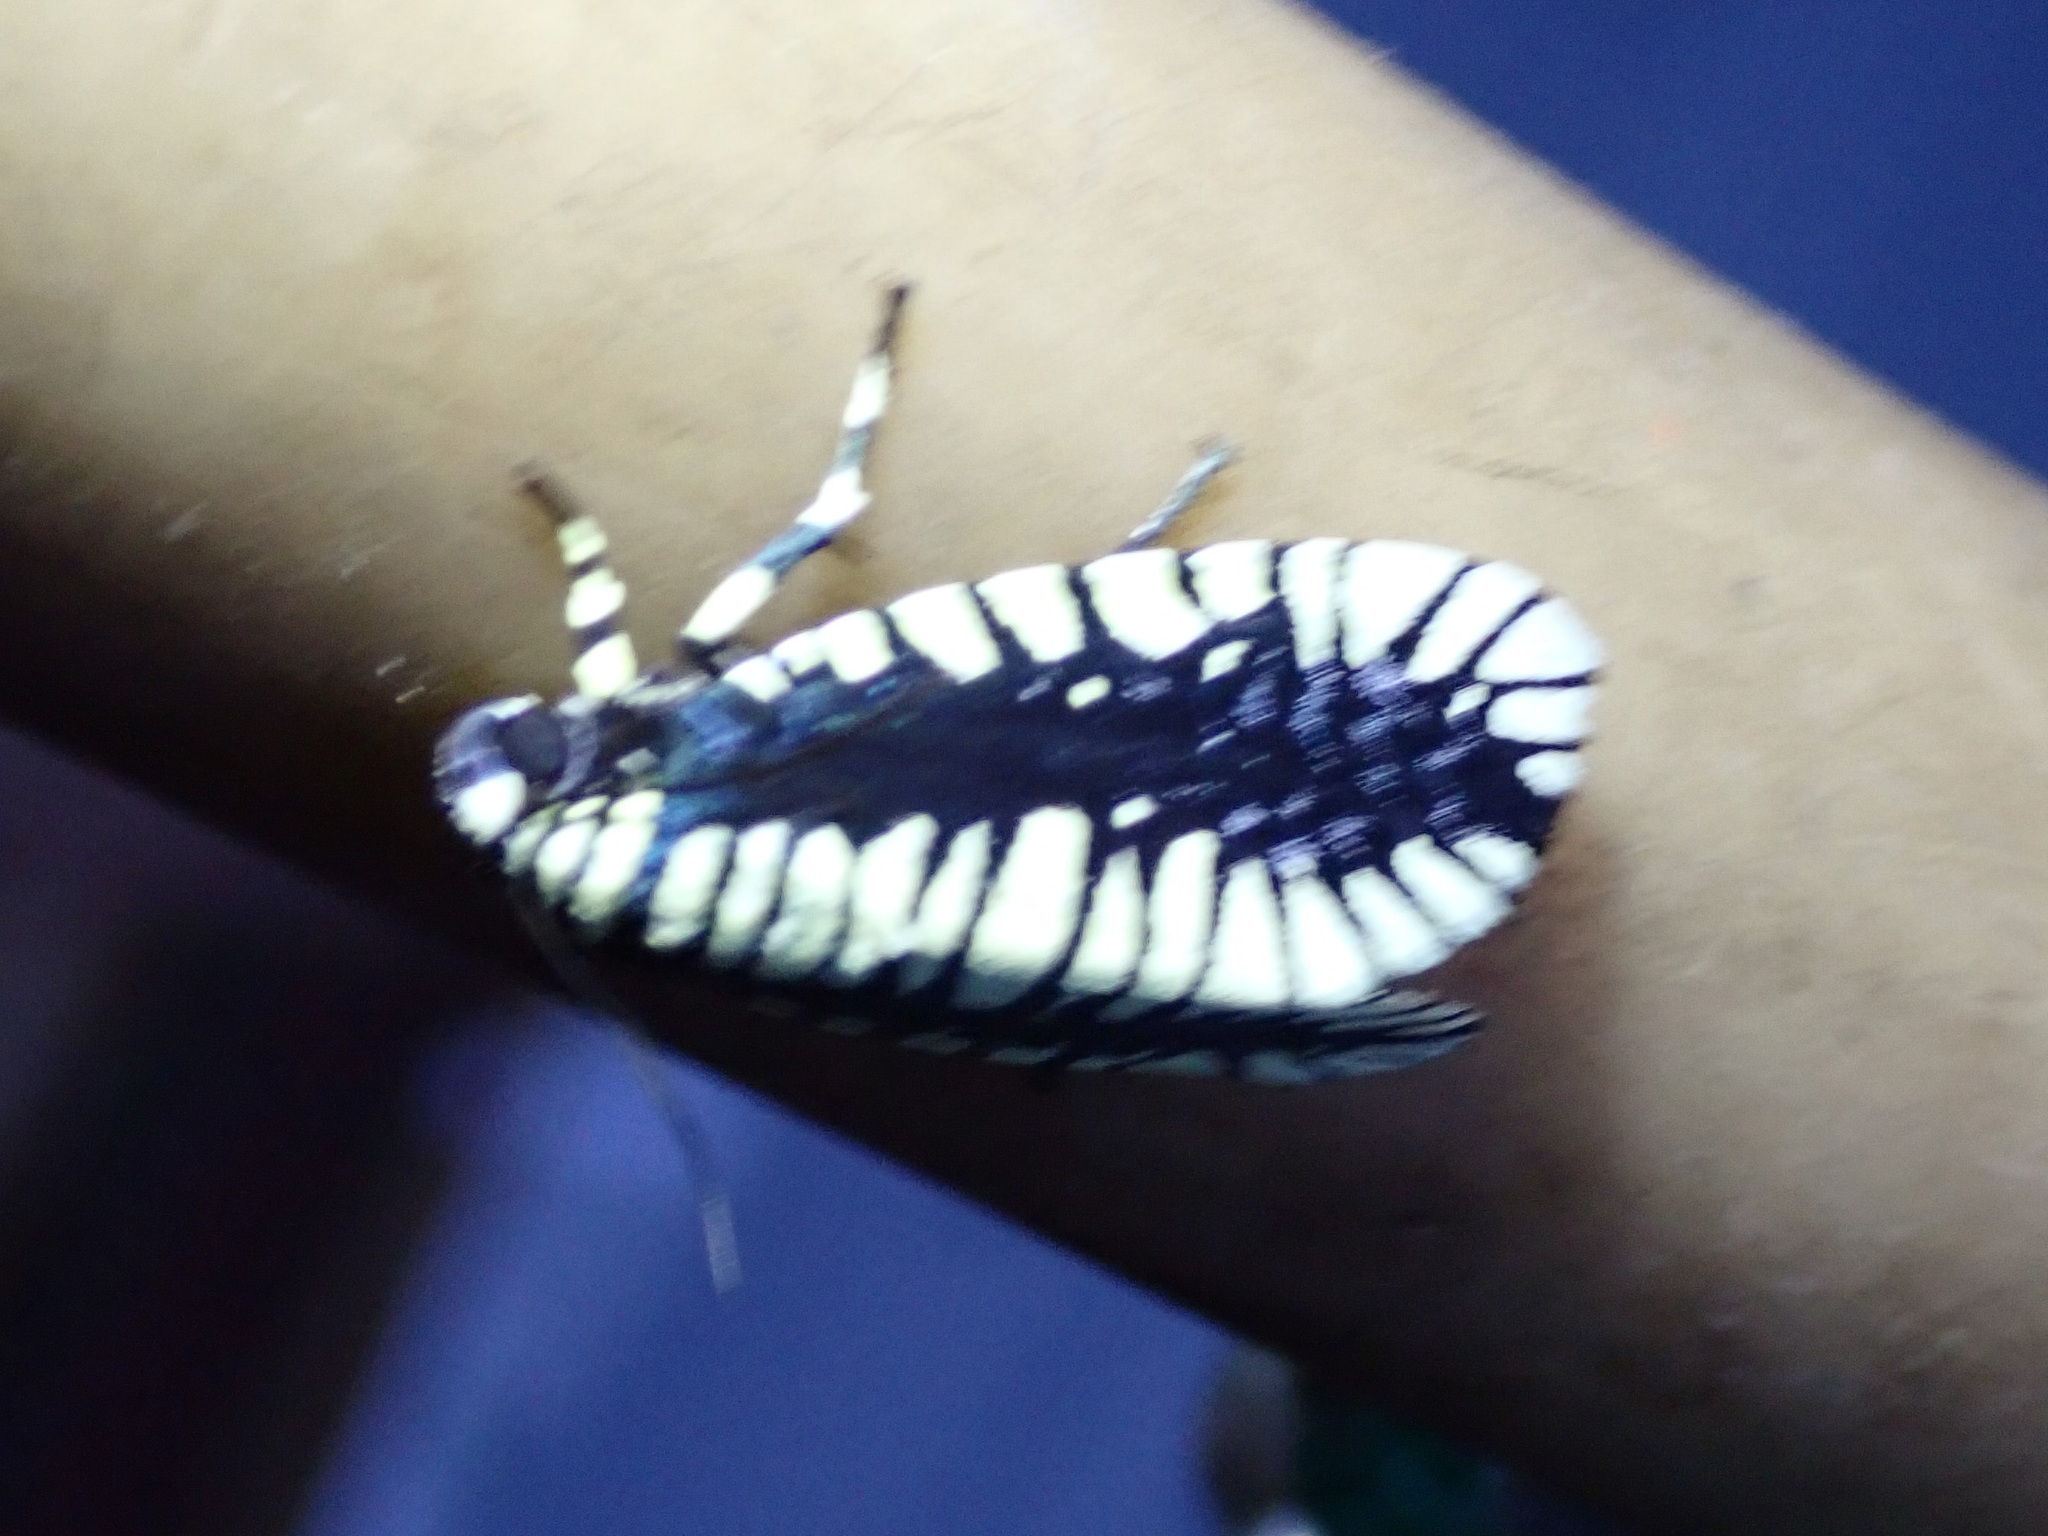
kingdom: Animalia
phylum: Arthropoda
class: Insecta
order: Lepidoptera
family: Noctuidae
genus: Apsarasa
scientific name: Apsarasa radians
